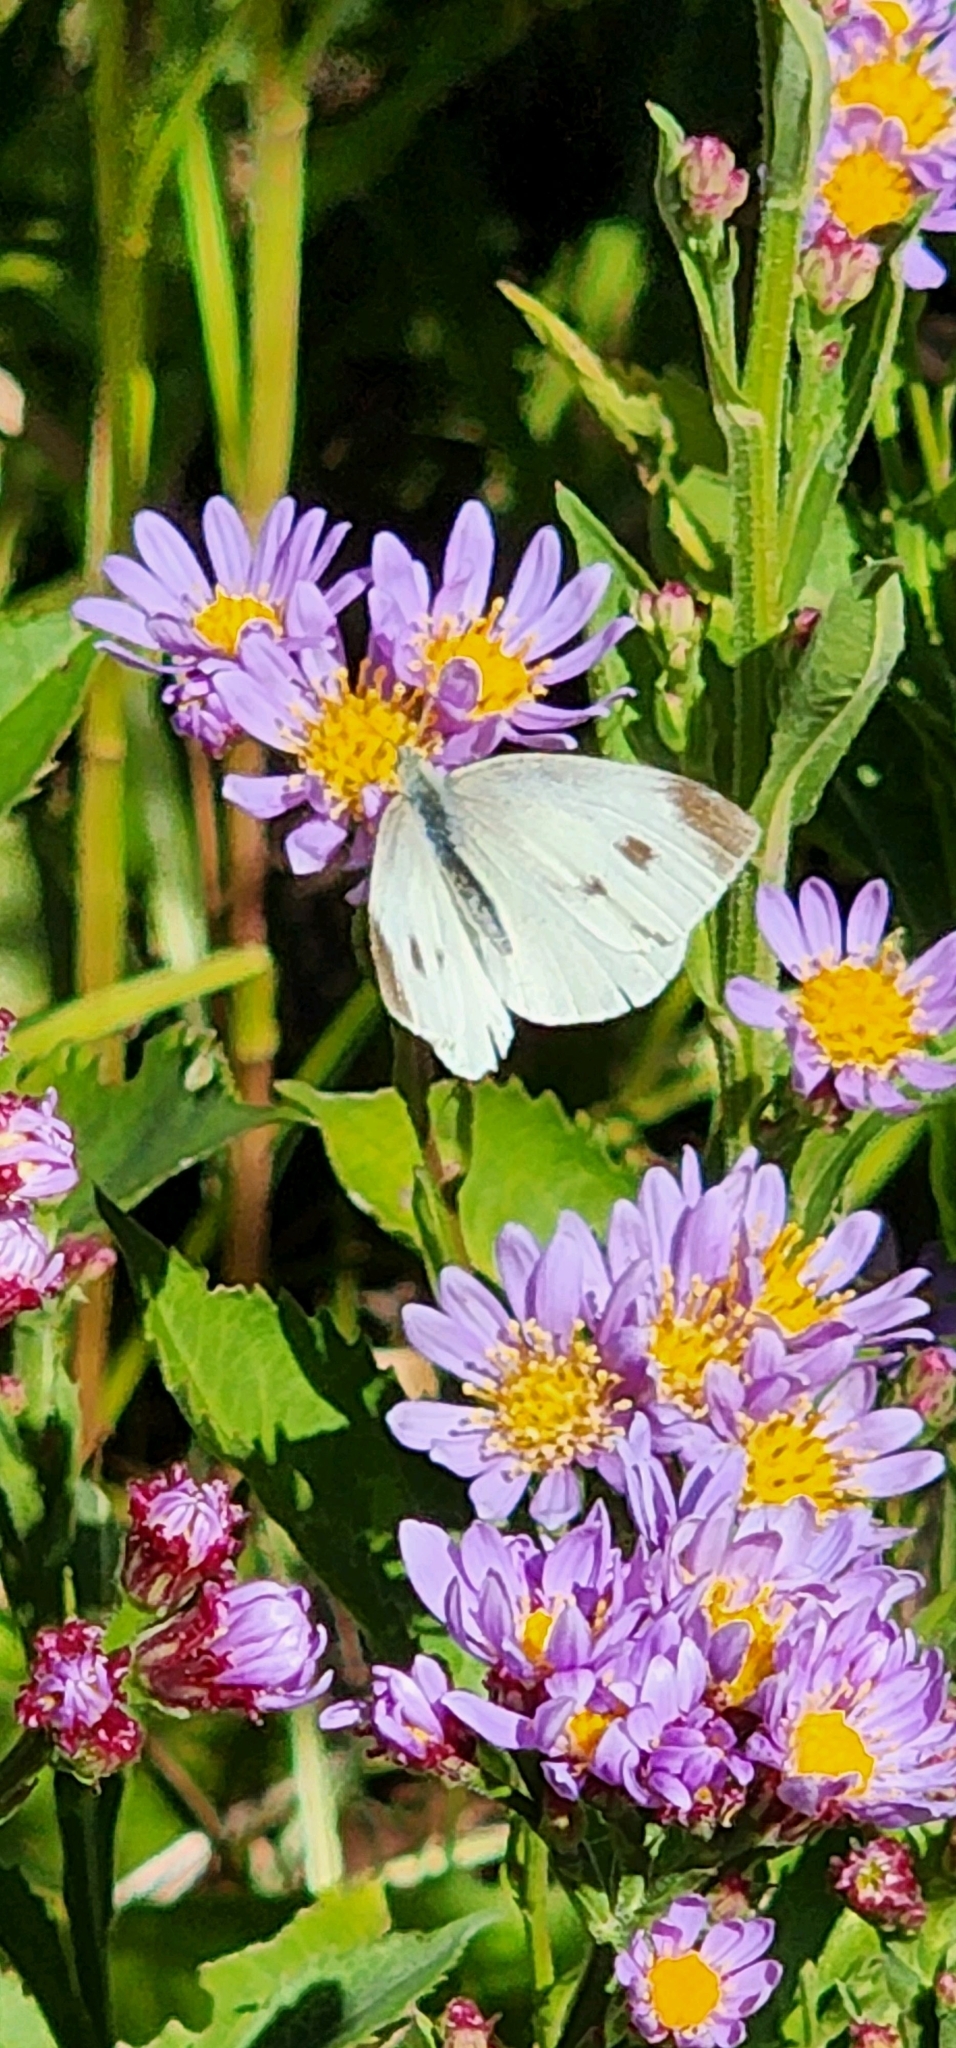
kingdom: Animalia
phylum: Arthropoda
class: Insecta
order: Lepidoptera
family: Pieridae
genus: Pieris
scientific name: Pieris rapae
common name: Small white
